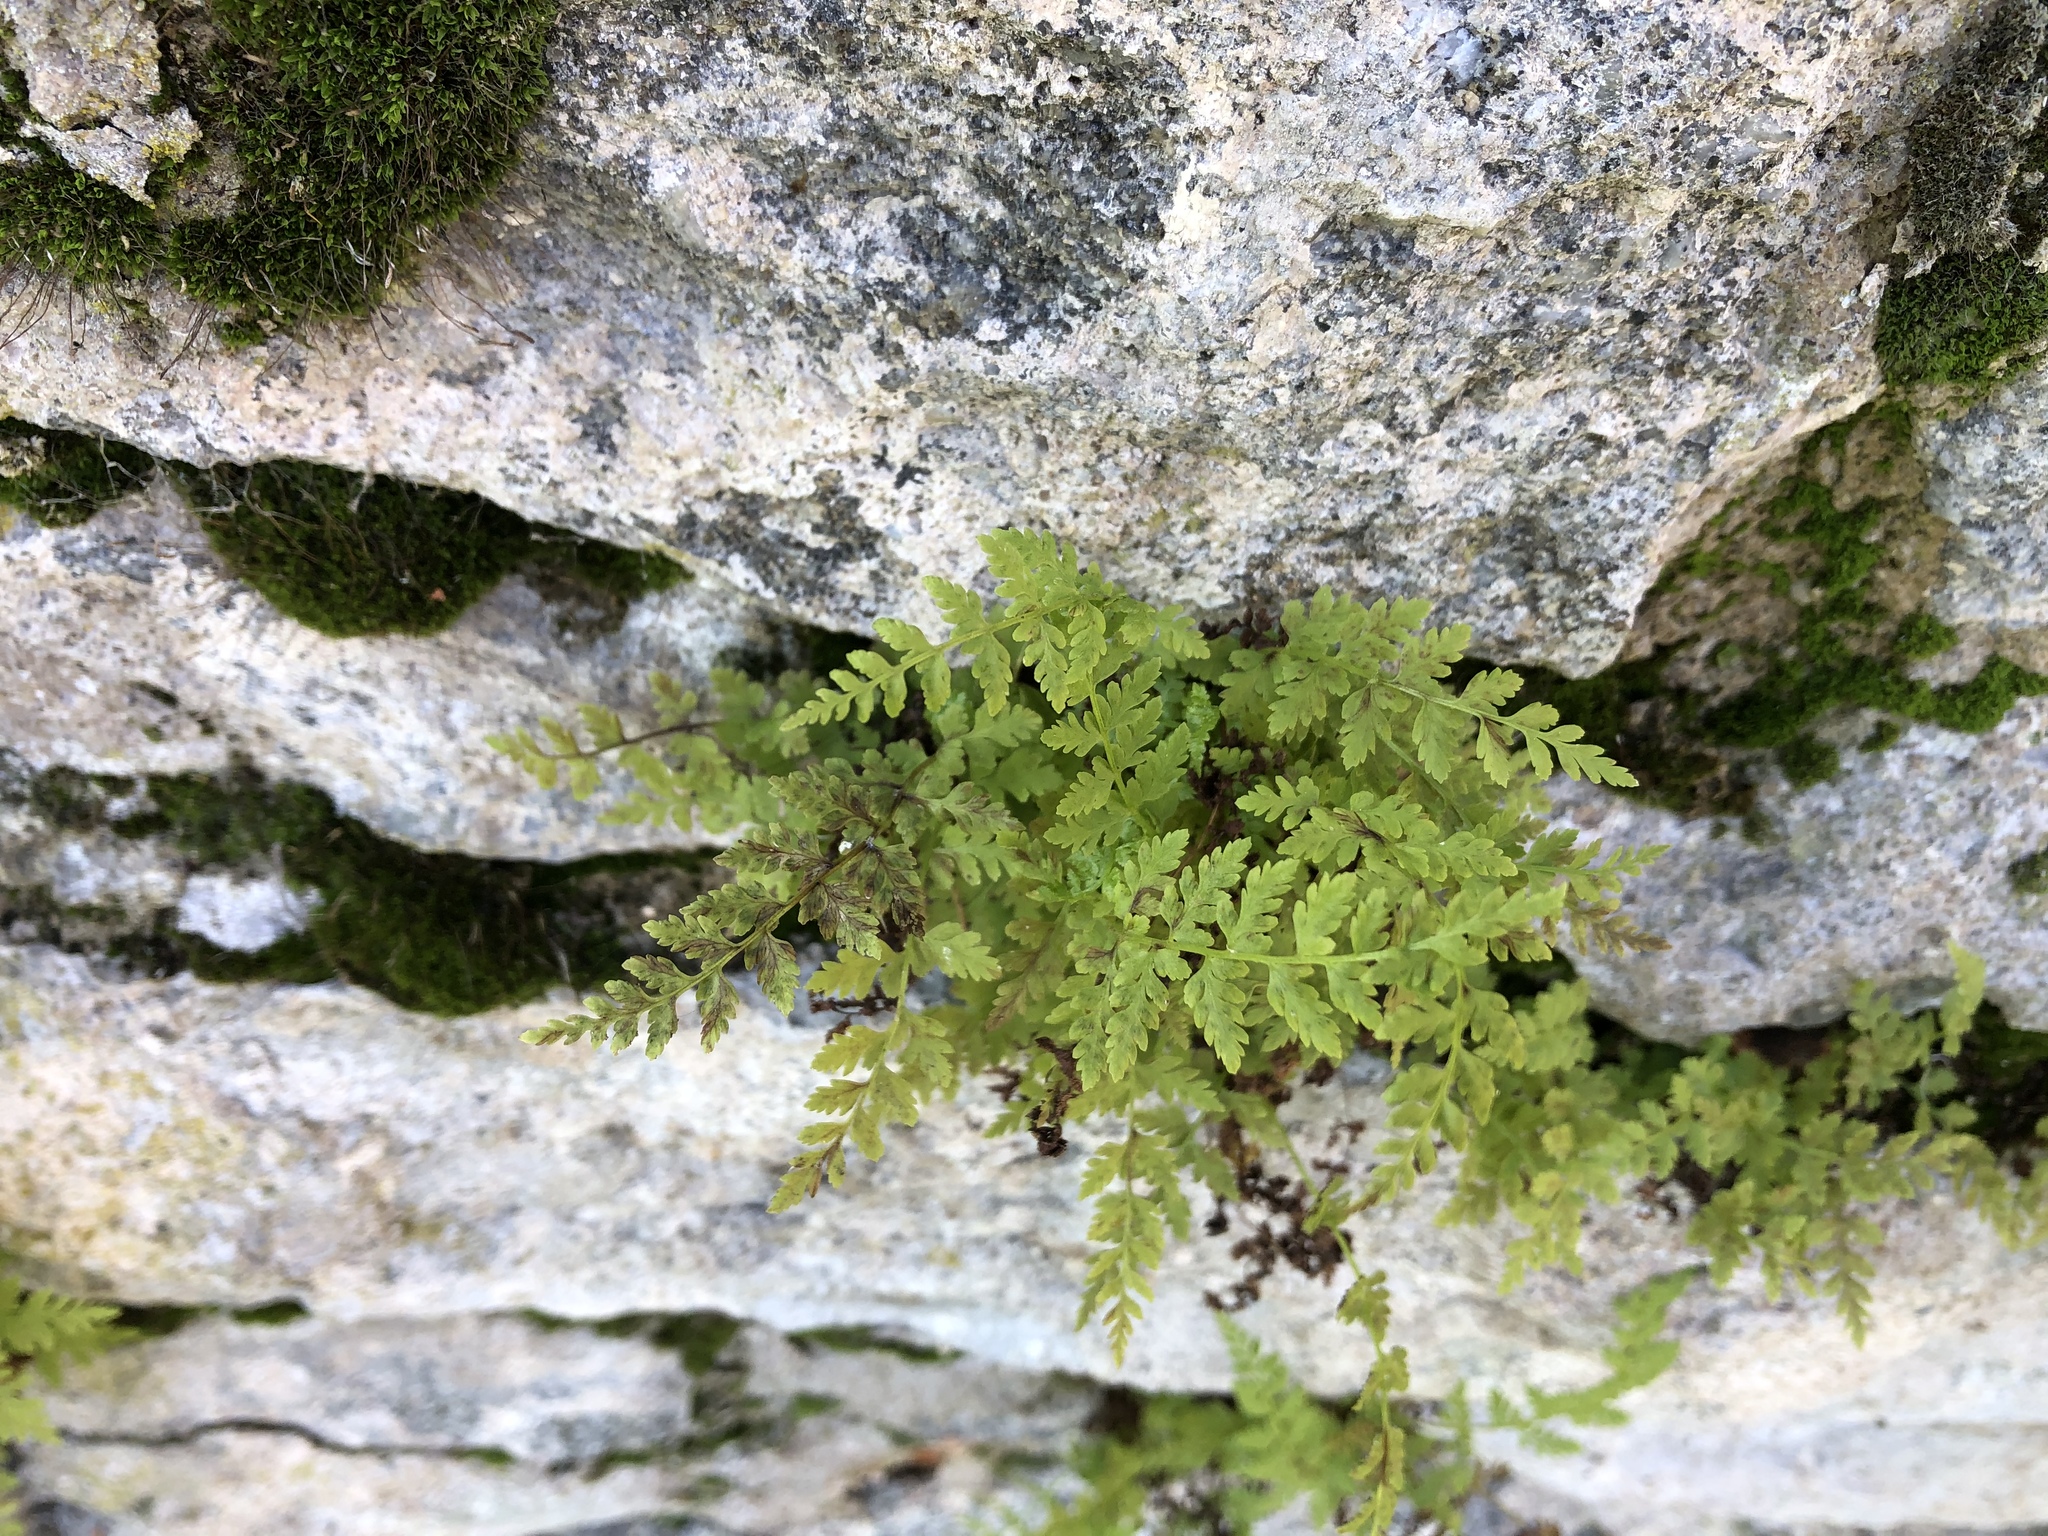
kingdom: Plantae
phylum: Tracheophyta
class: Polypodiopsida
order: Polypodiales
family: Cystopteridaceae
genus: Cystopteris
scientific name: Cystopteris fragilis
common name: Brittle bladder fern
